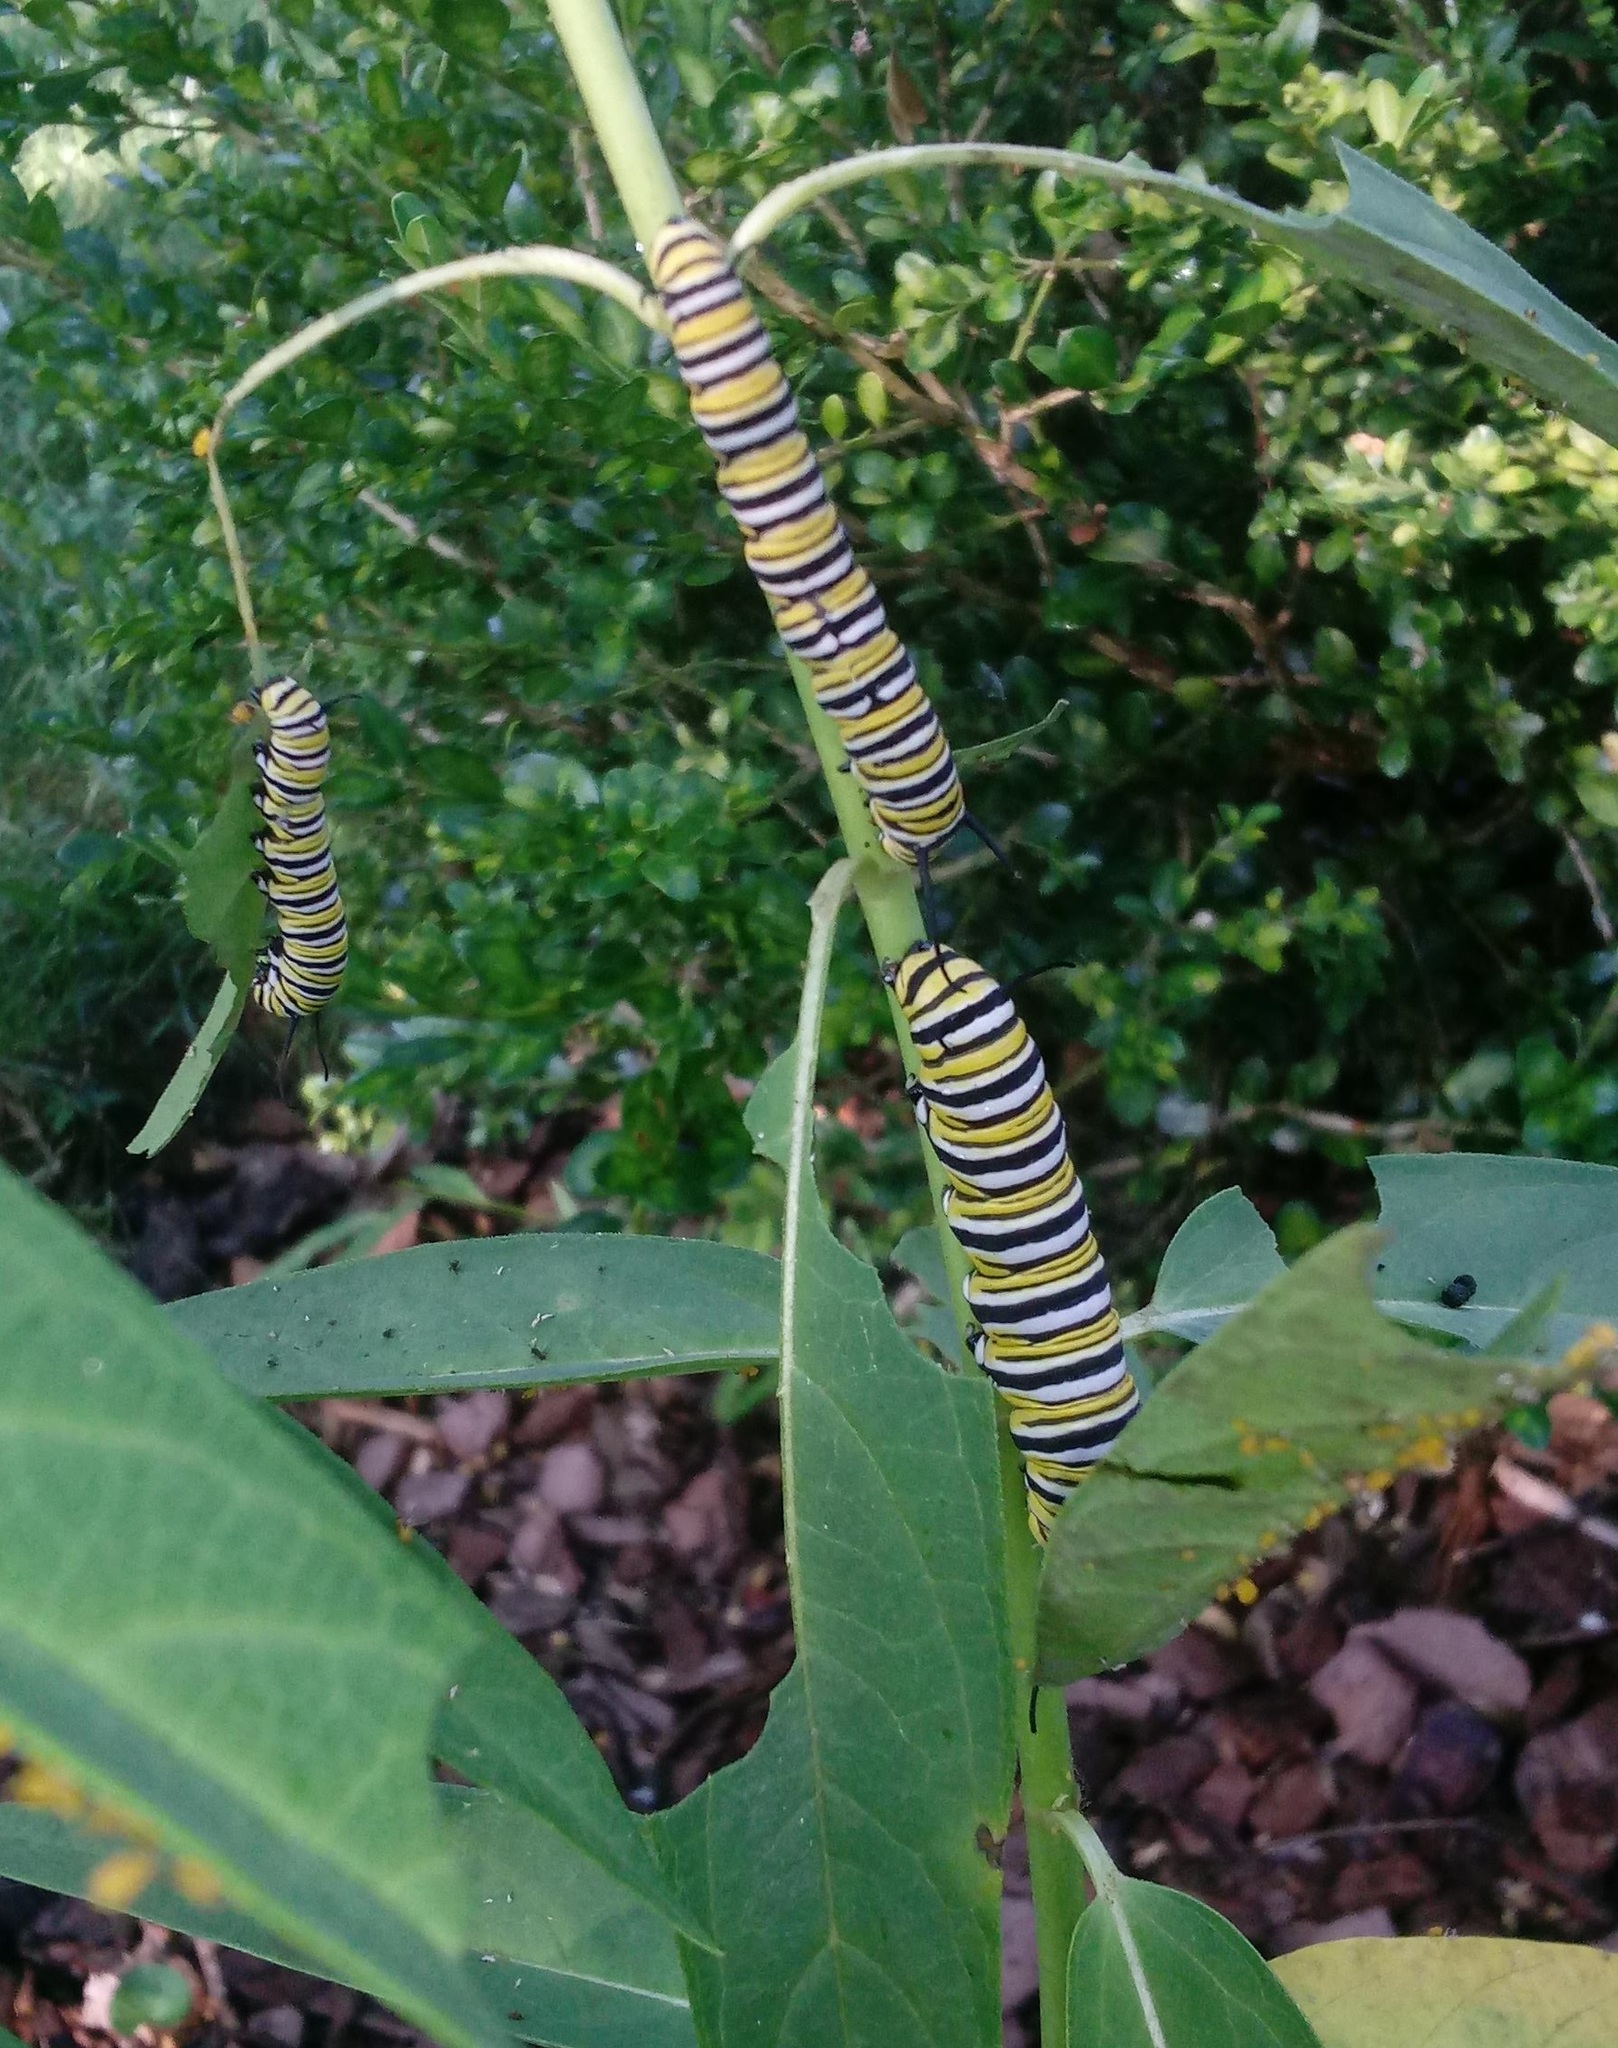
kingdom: Animalia
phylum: Arthropoda
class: Insecta
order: Lepidoptera
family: Nymphalidae
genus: Danaus
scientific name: Danaus plexippus
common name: Monarch
